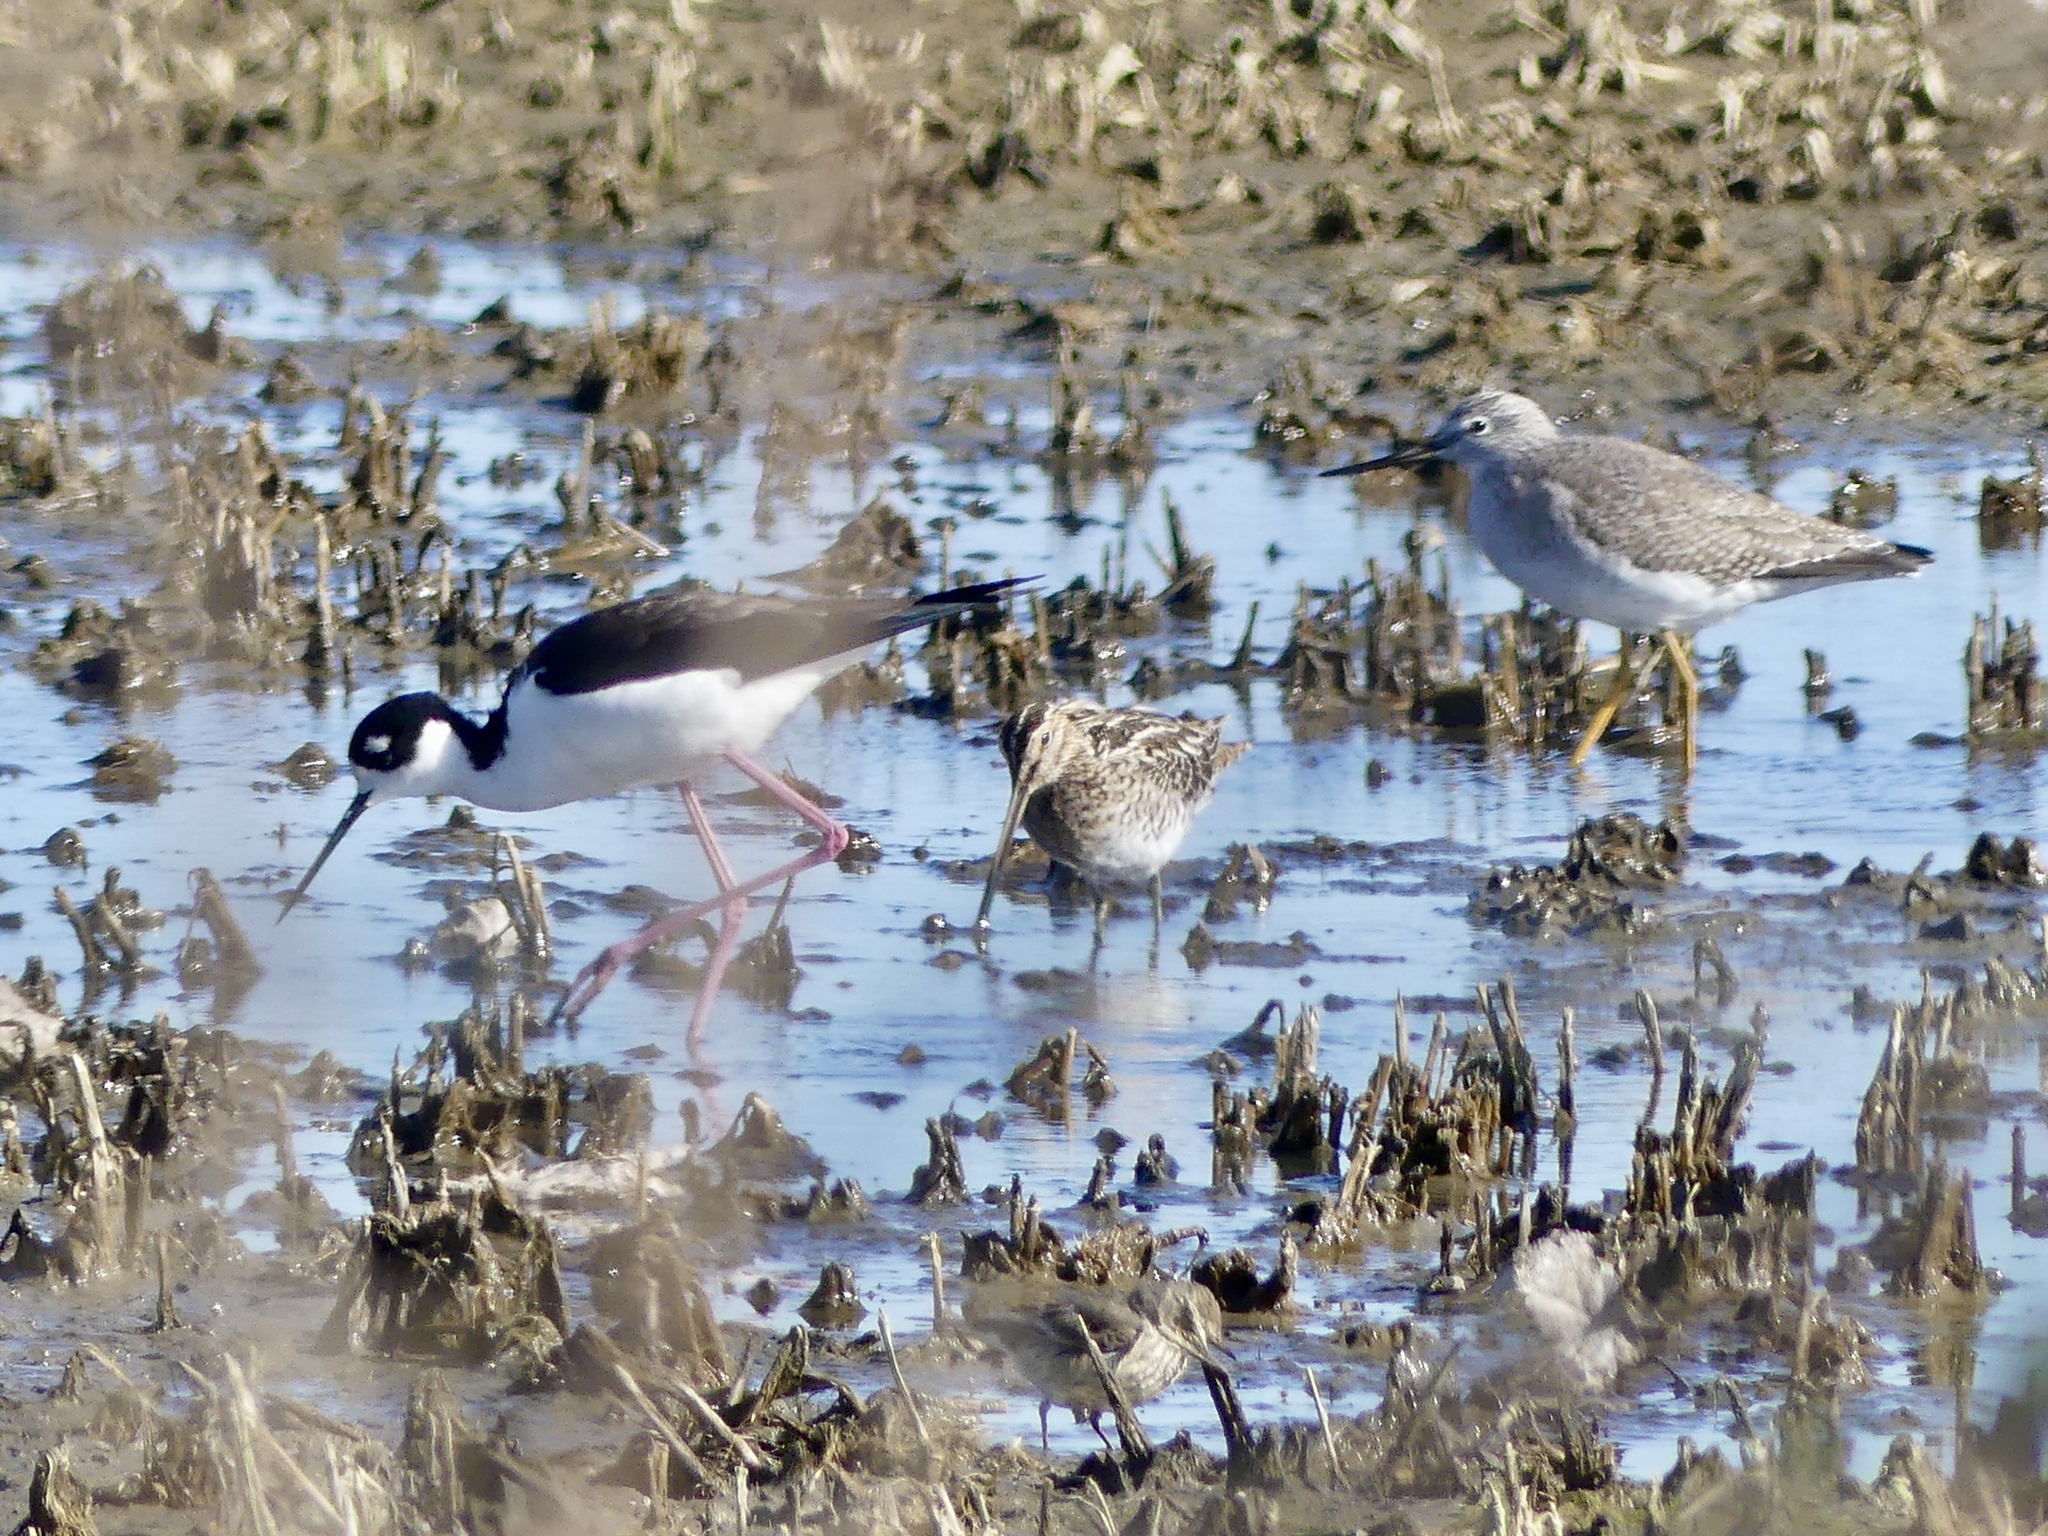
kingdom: Animalia
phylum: Chordata
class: Aves
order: Charadriiformes
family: Scolopacidae
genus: Gallinago
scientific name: Gallinago delicata
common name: Wilson's snipe
